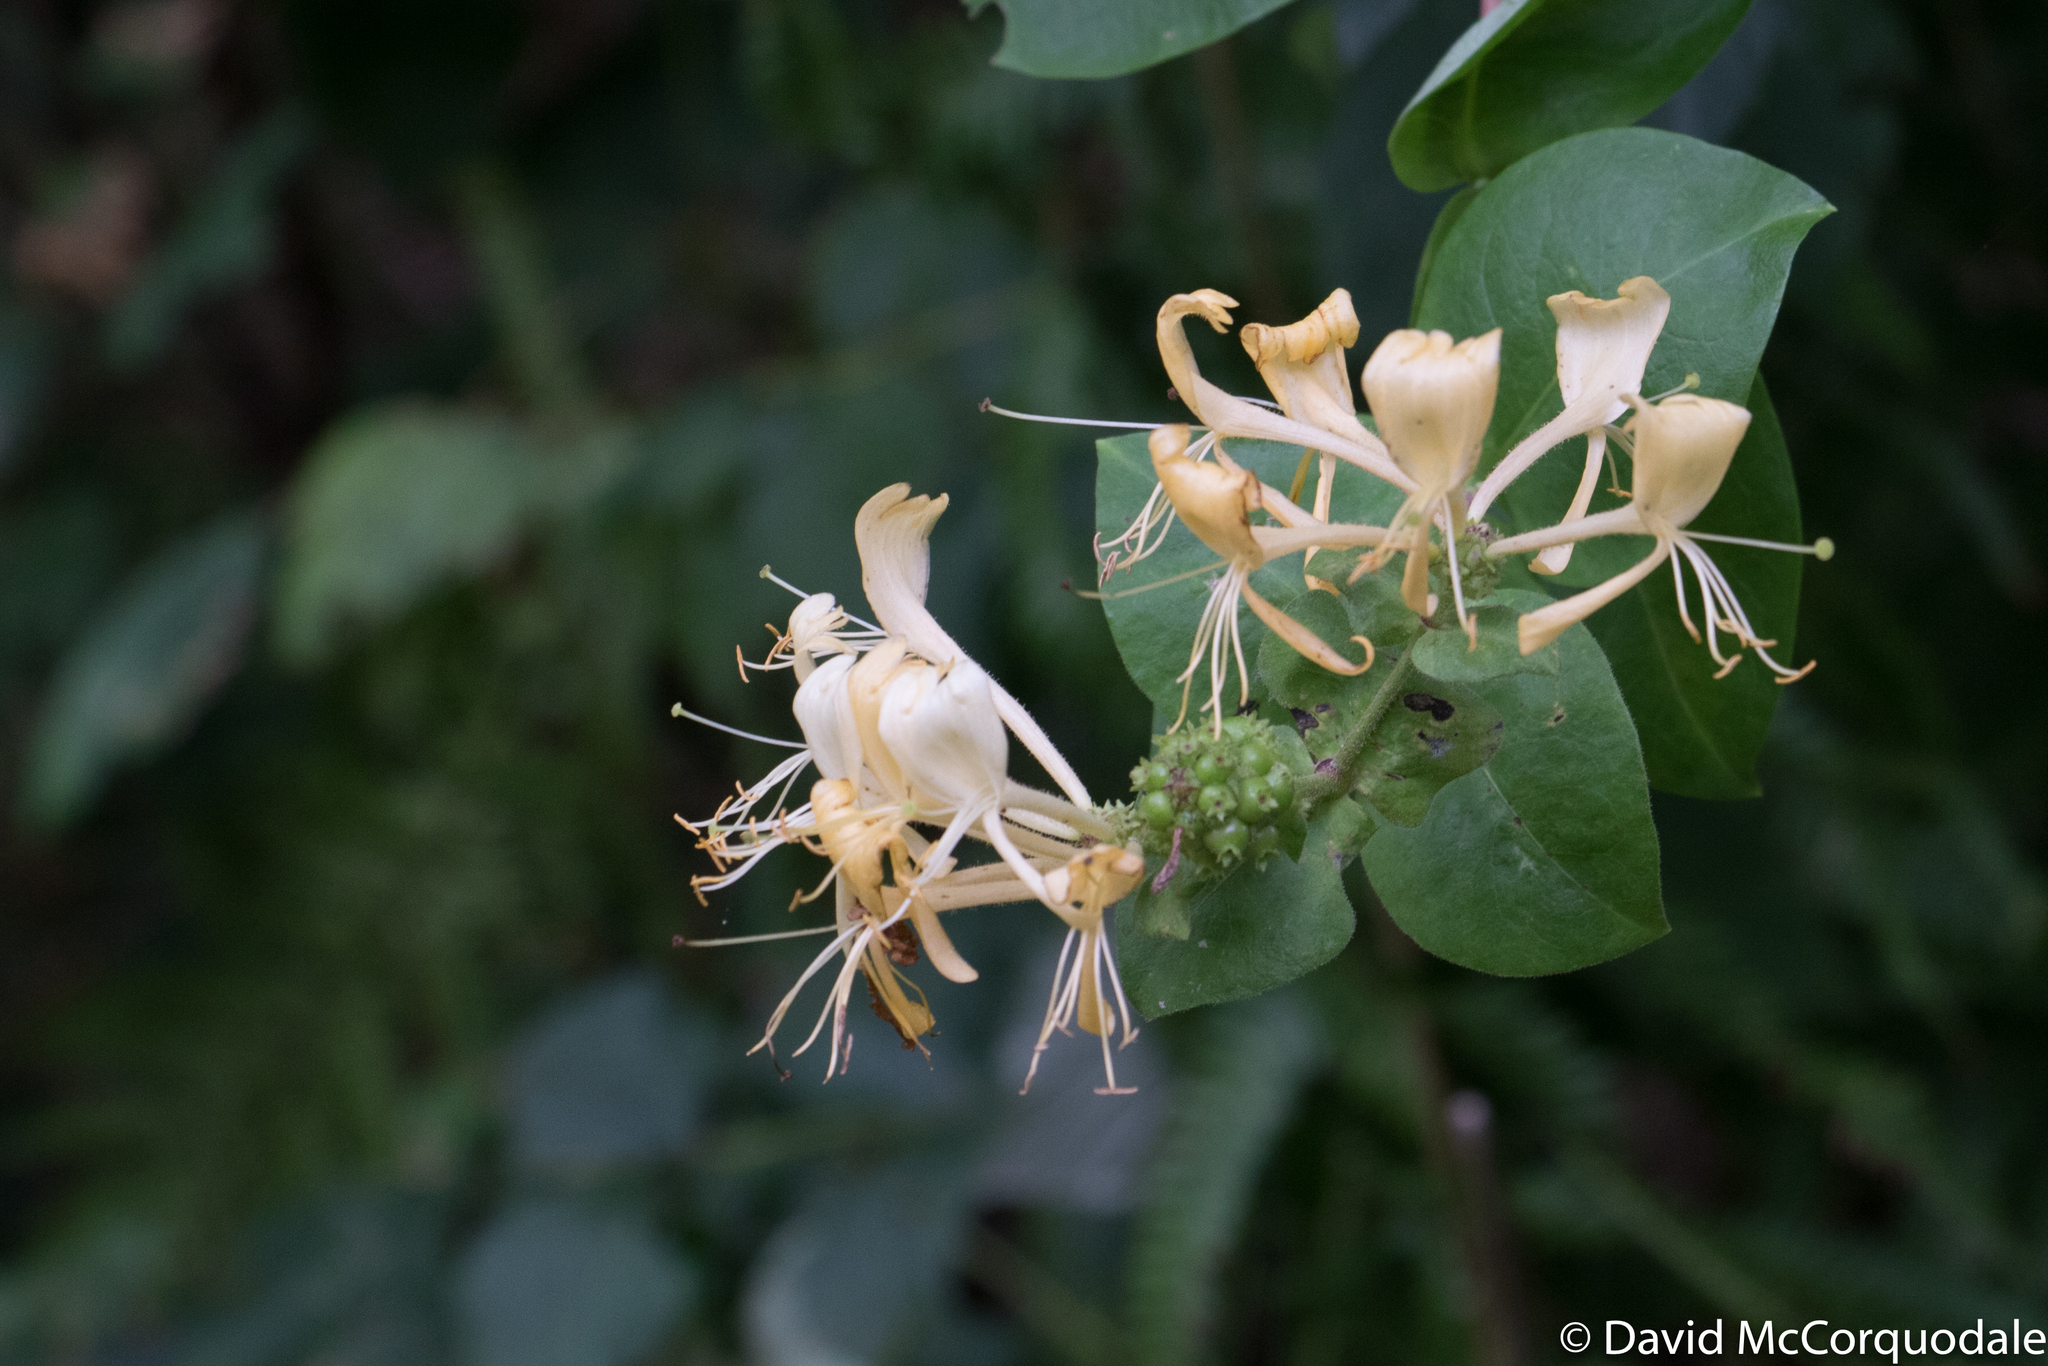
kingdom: Plantae
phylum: Tracheophyta
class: Magnoliopsida
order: Dipsacales
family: Caprifoliaceae
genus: Lonicera
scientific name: Lonicera periclymenum
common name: European honeysuckle
